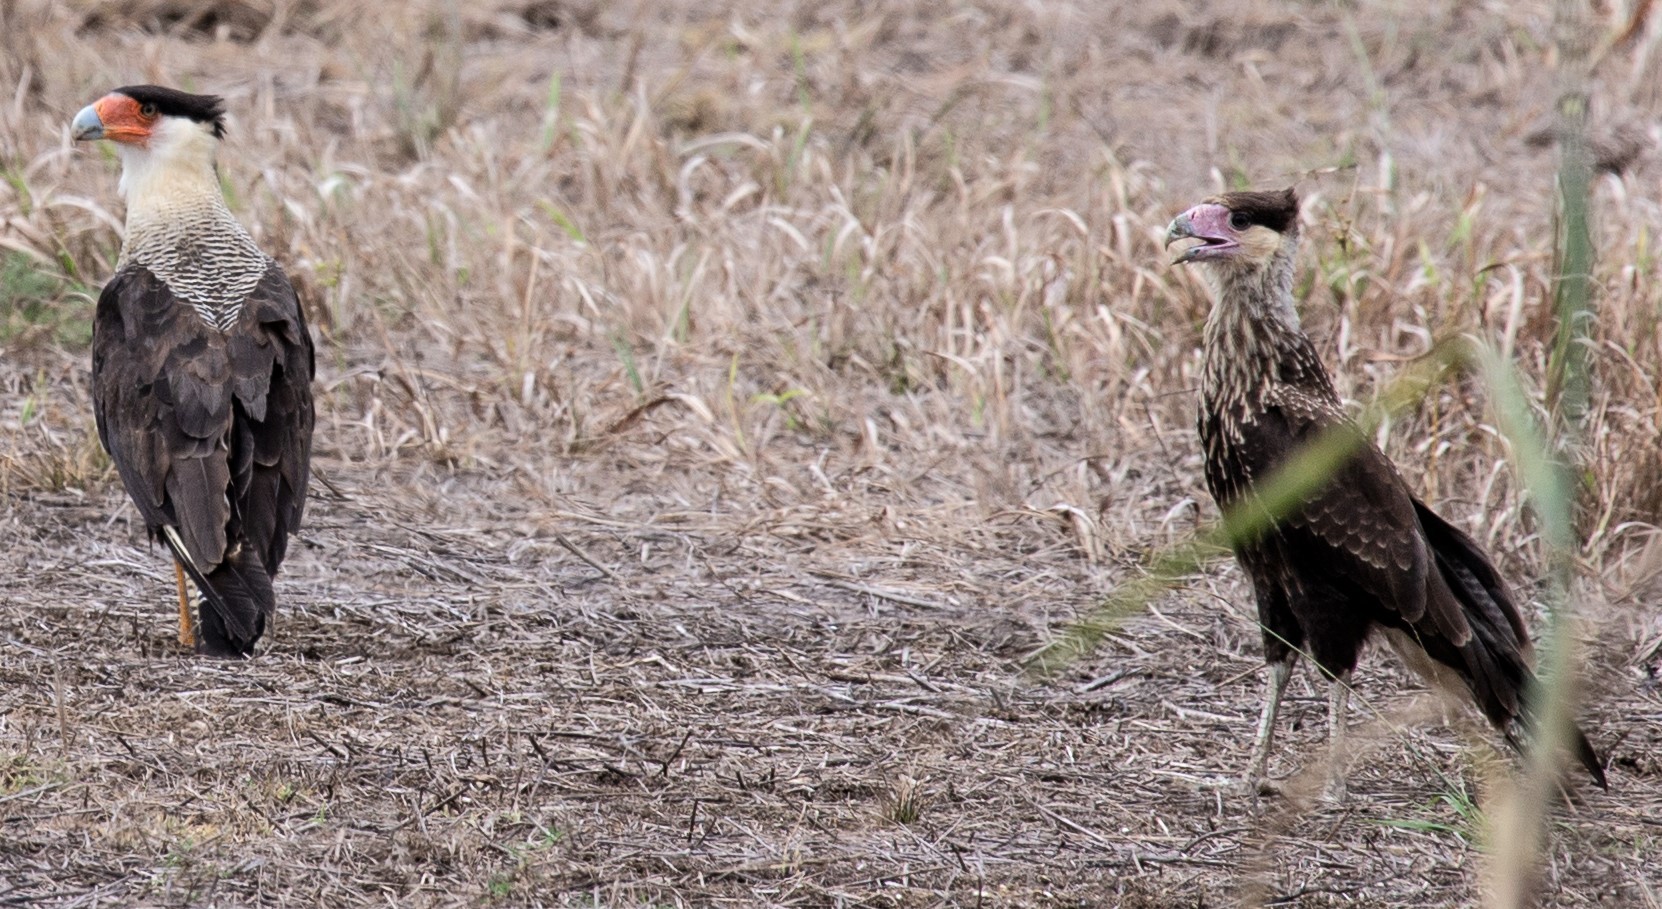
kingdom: Animalia
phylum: Chordata
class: Aves
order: Falconiformes
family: Falconidae
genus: Caracara
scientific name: Caracara plancus
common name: Southern caracara
